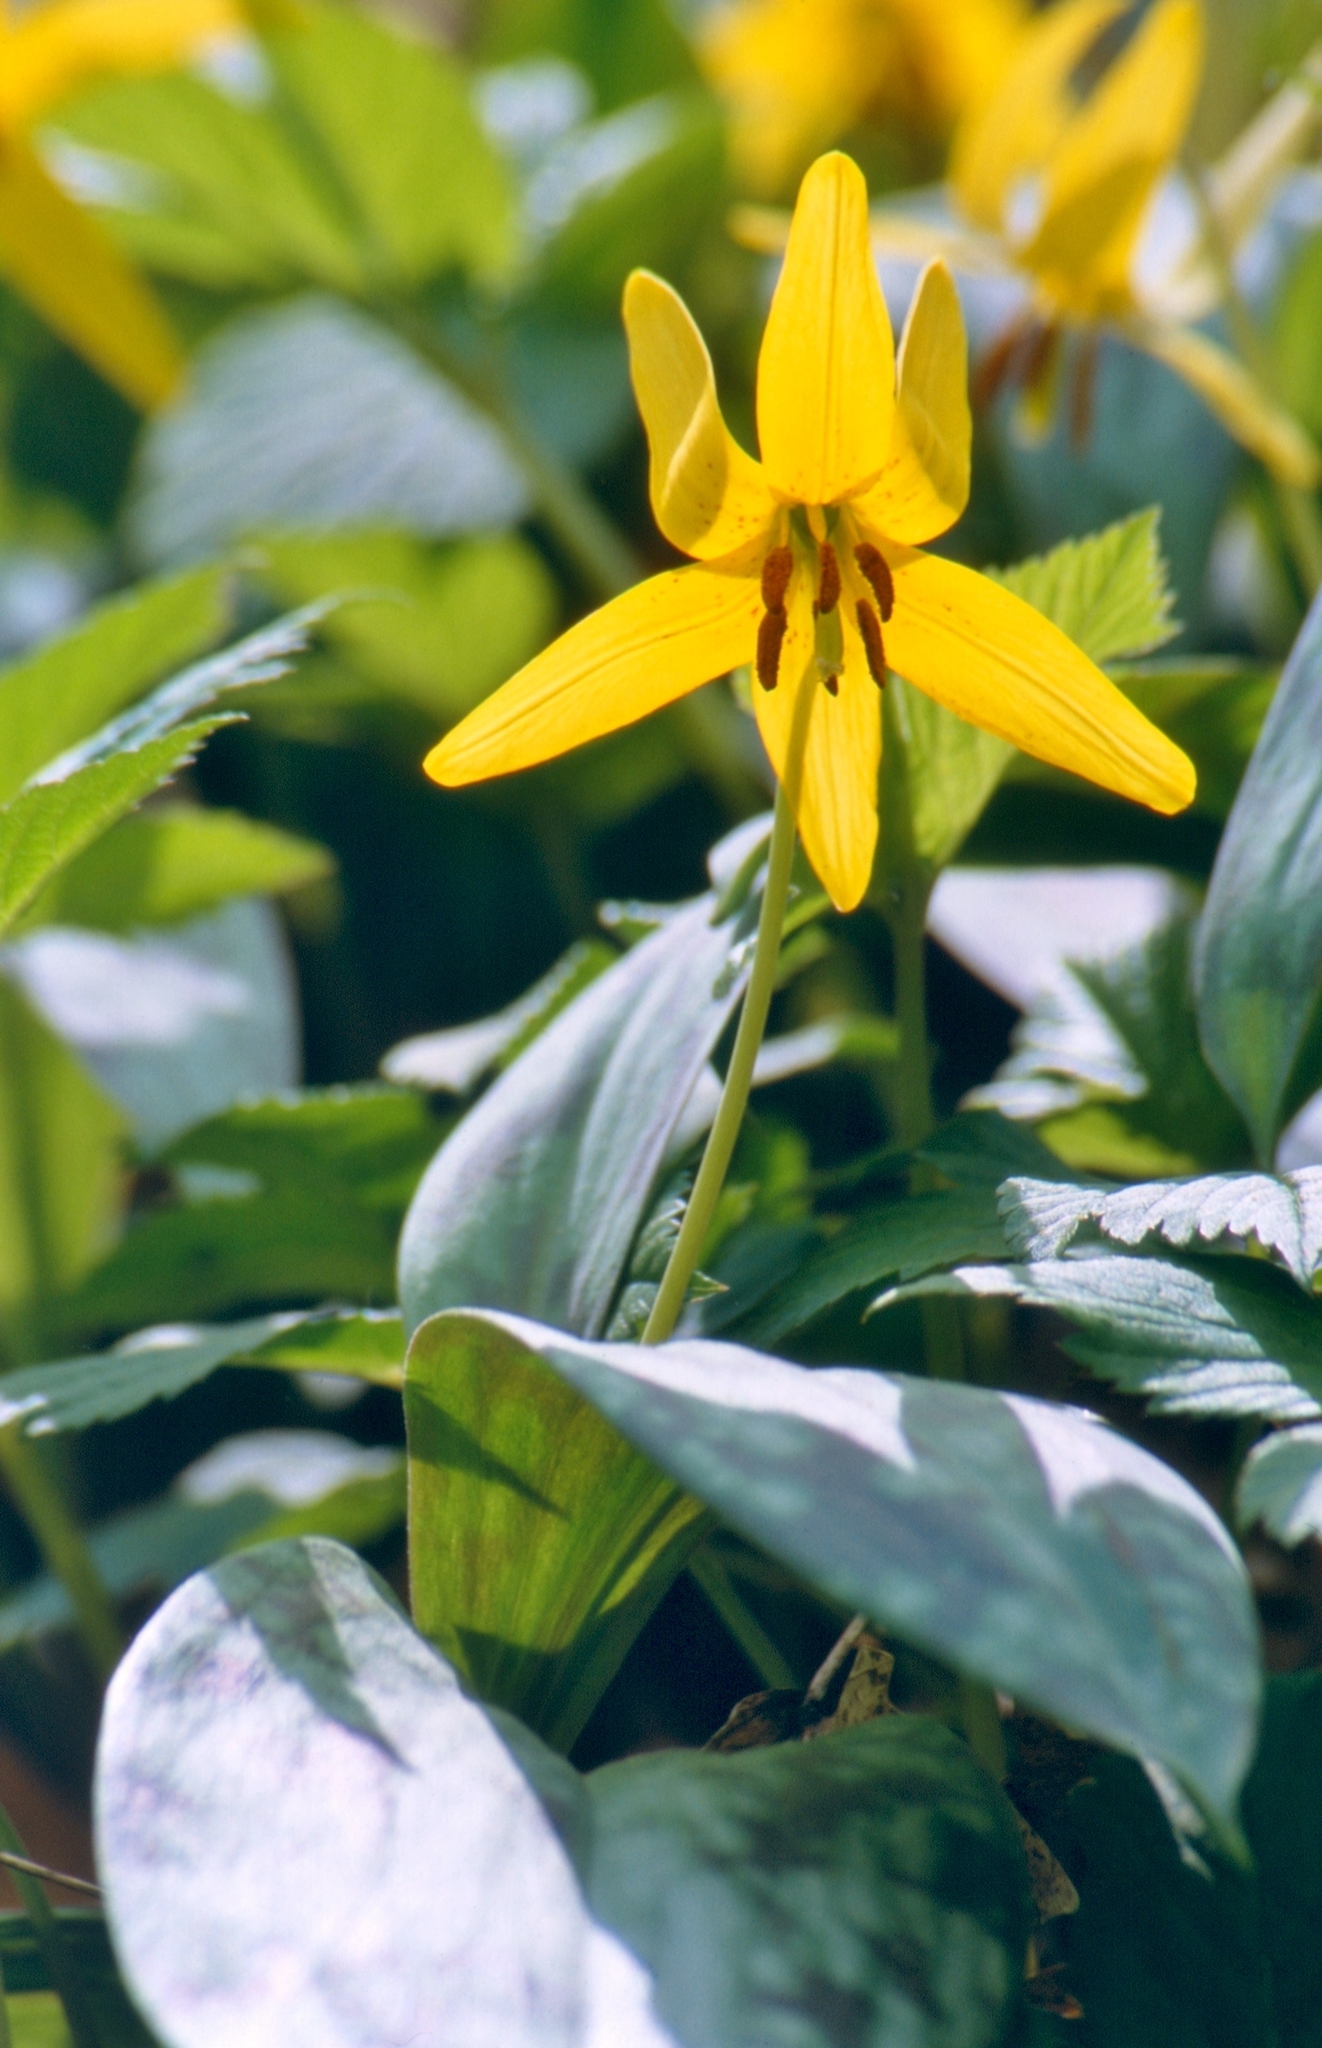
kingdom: Plantae
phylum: Tracheophyta
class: Liliopsida
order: Liliales
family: Liliaceae
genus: Erythronium
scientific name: Erythronium americanum
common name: Yellow adder's-tongue
